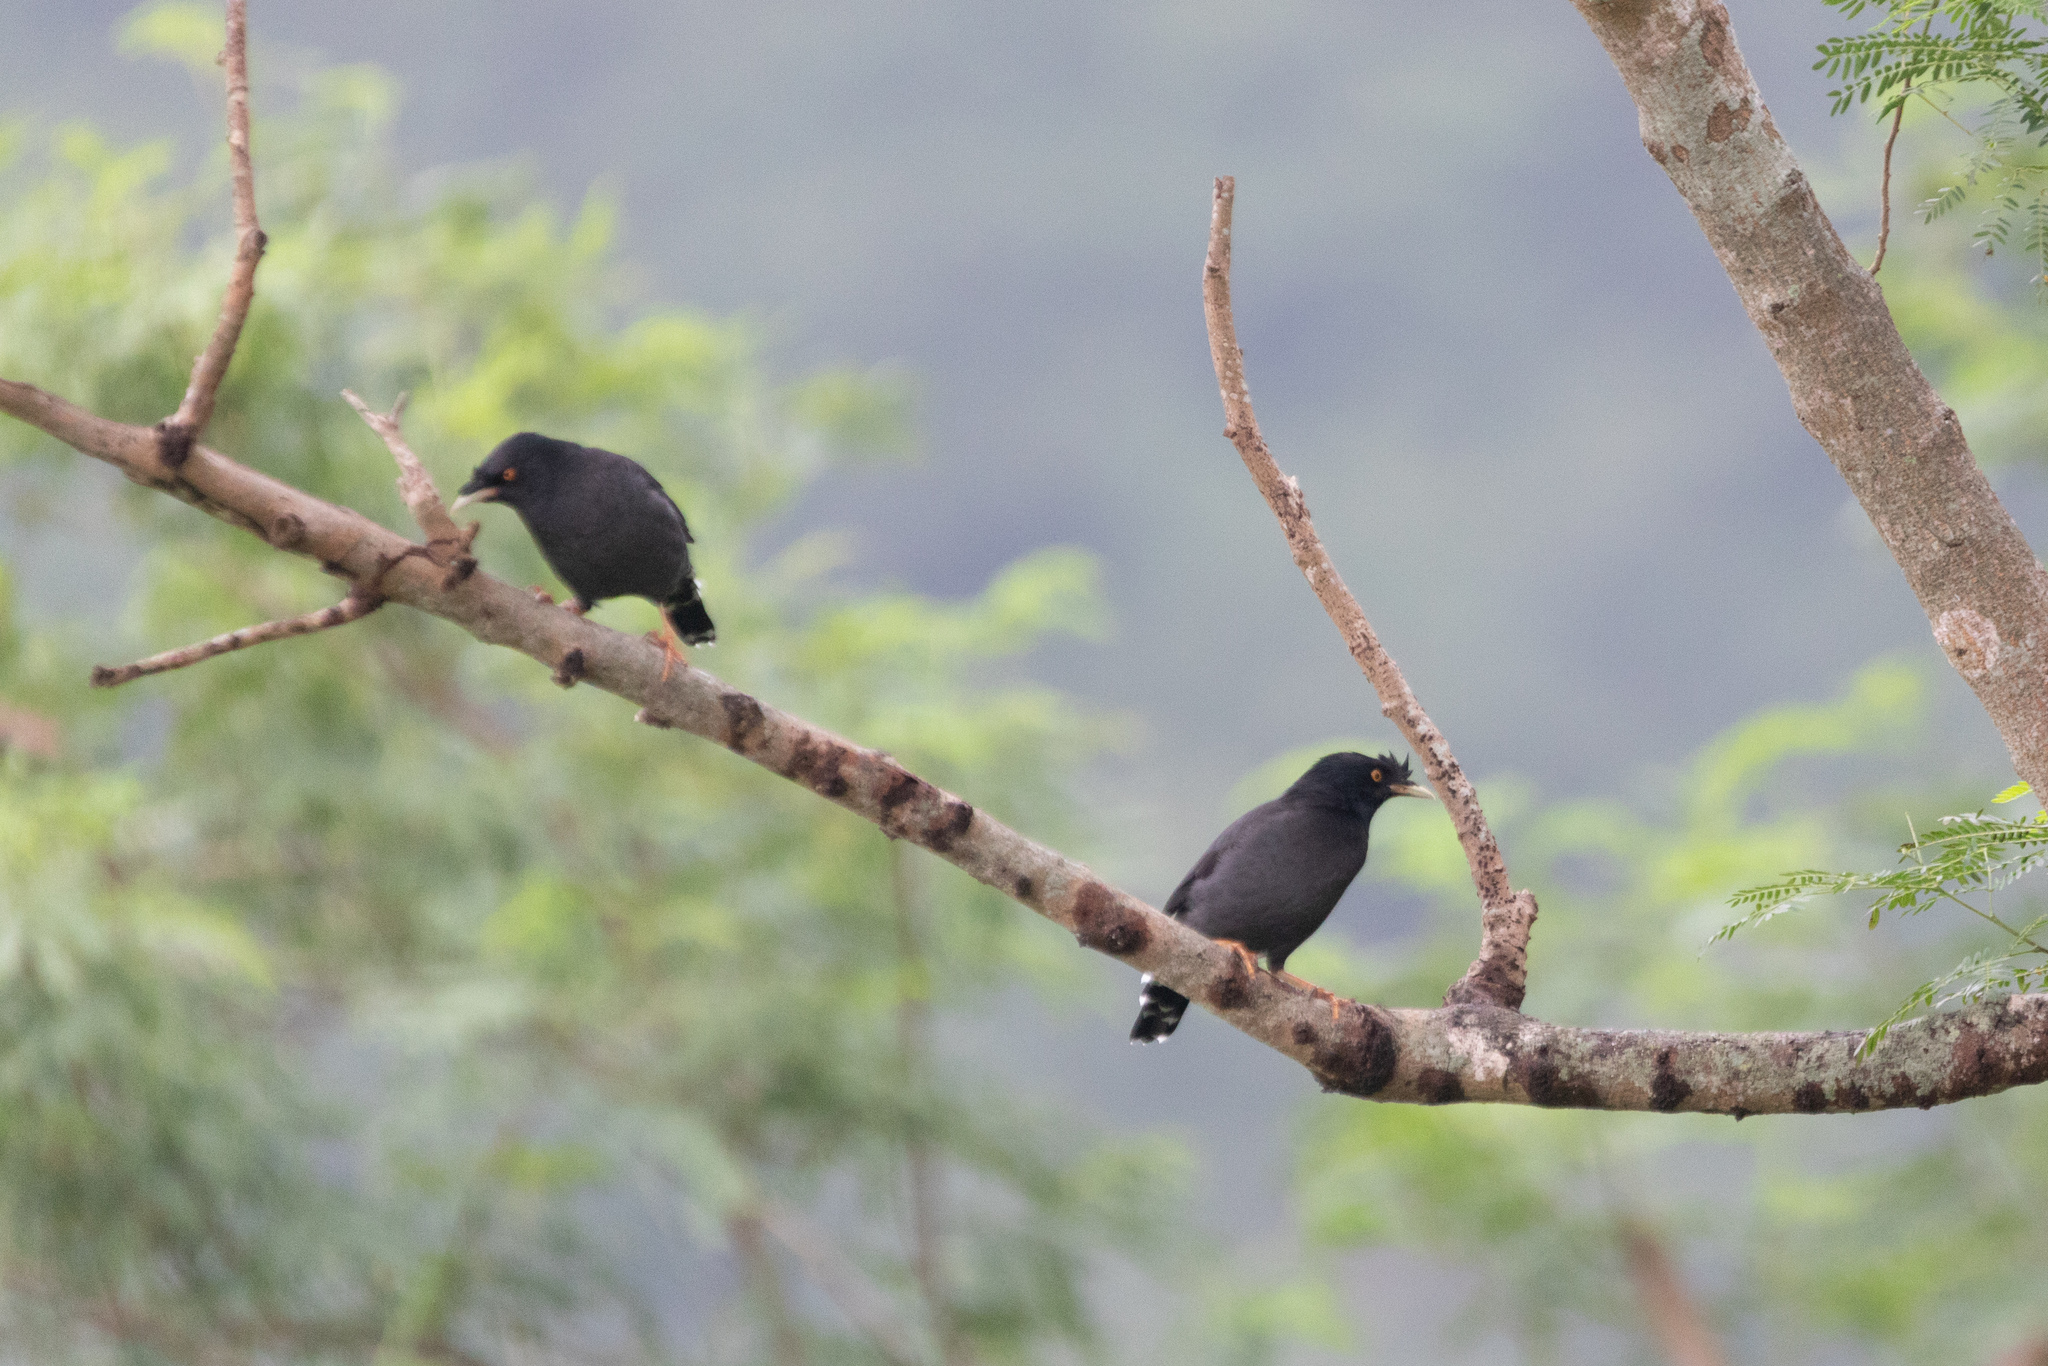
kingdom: Animalia
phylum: Chordata
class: Aves
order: Passeriformes
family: Sturnidae
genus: Acridotheres
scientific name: Acridotheres cristatellus
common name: Crested myna
